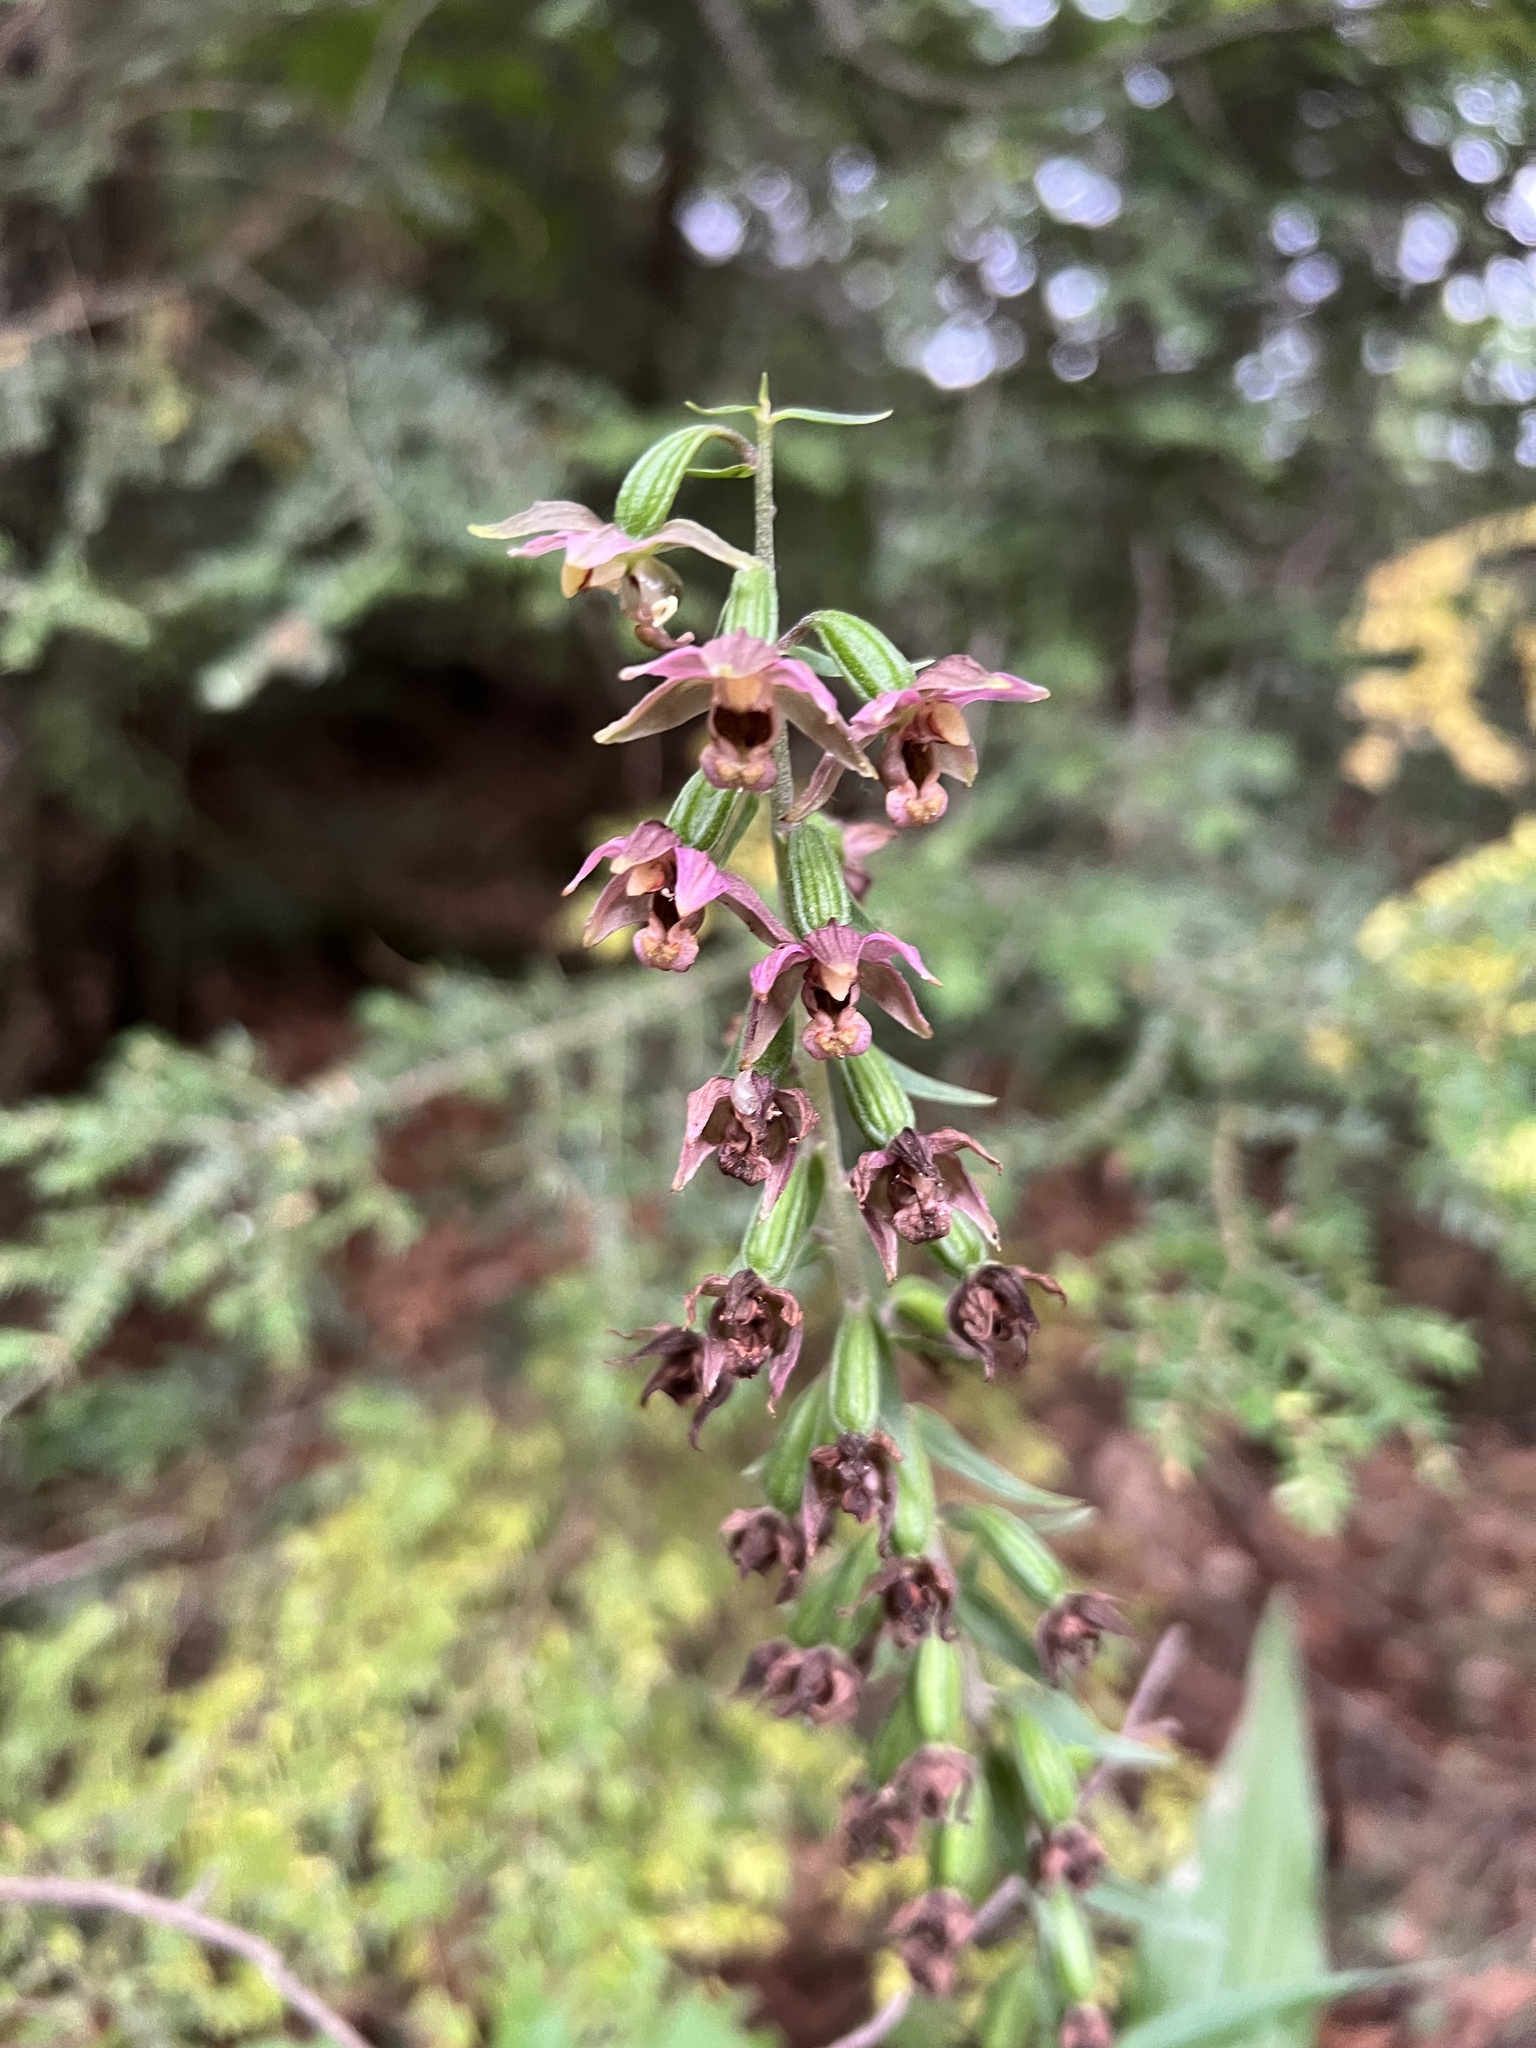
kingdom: Plantae
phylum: Tracheophyta
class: Liliopsida
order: Asparagales
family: Orchidaceae
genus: Epipactis
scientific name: Epipactis helleborine
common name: Broad-leaved helleborine
